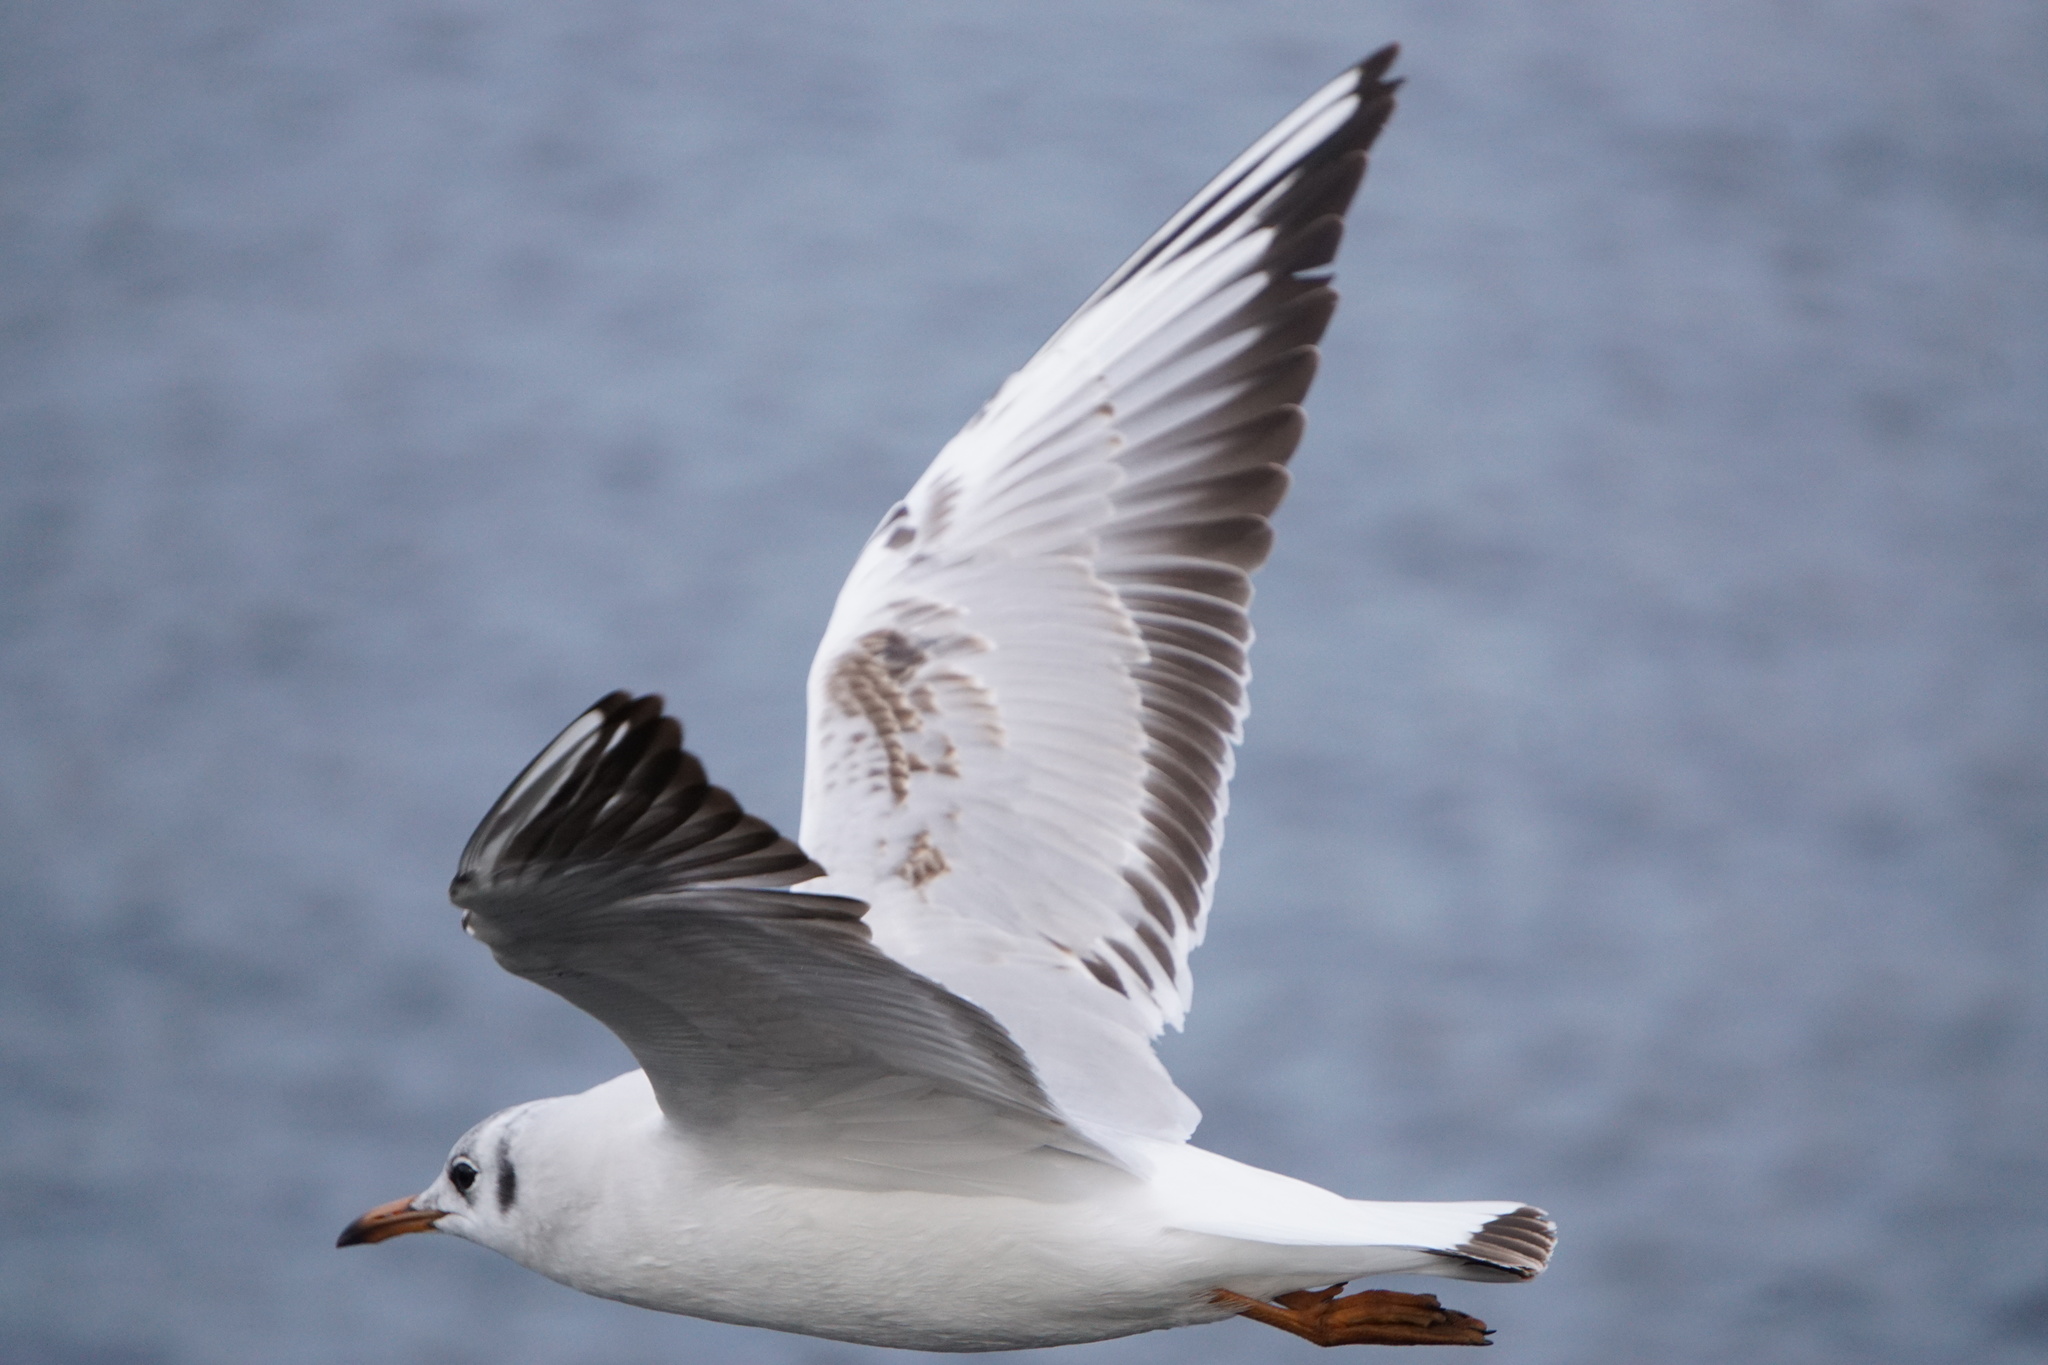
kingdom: Animalia
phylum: Chordata
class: Aves
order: Charadriiformes
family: Laridae
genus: Chroicocephalus
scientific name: Chroicocephalus ridibundus
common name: Black-headed gull
